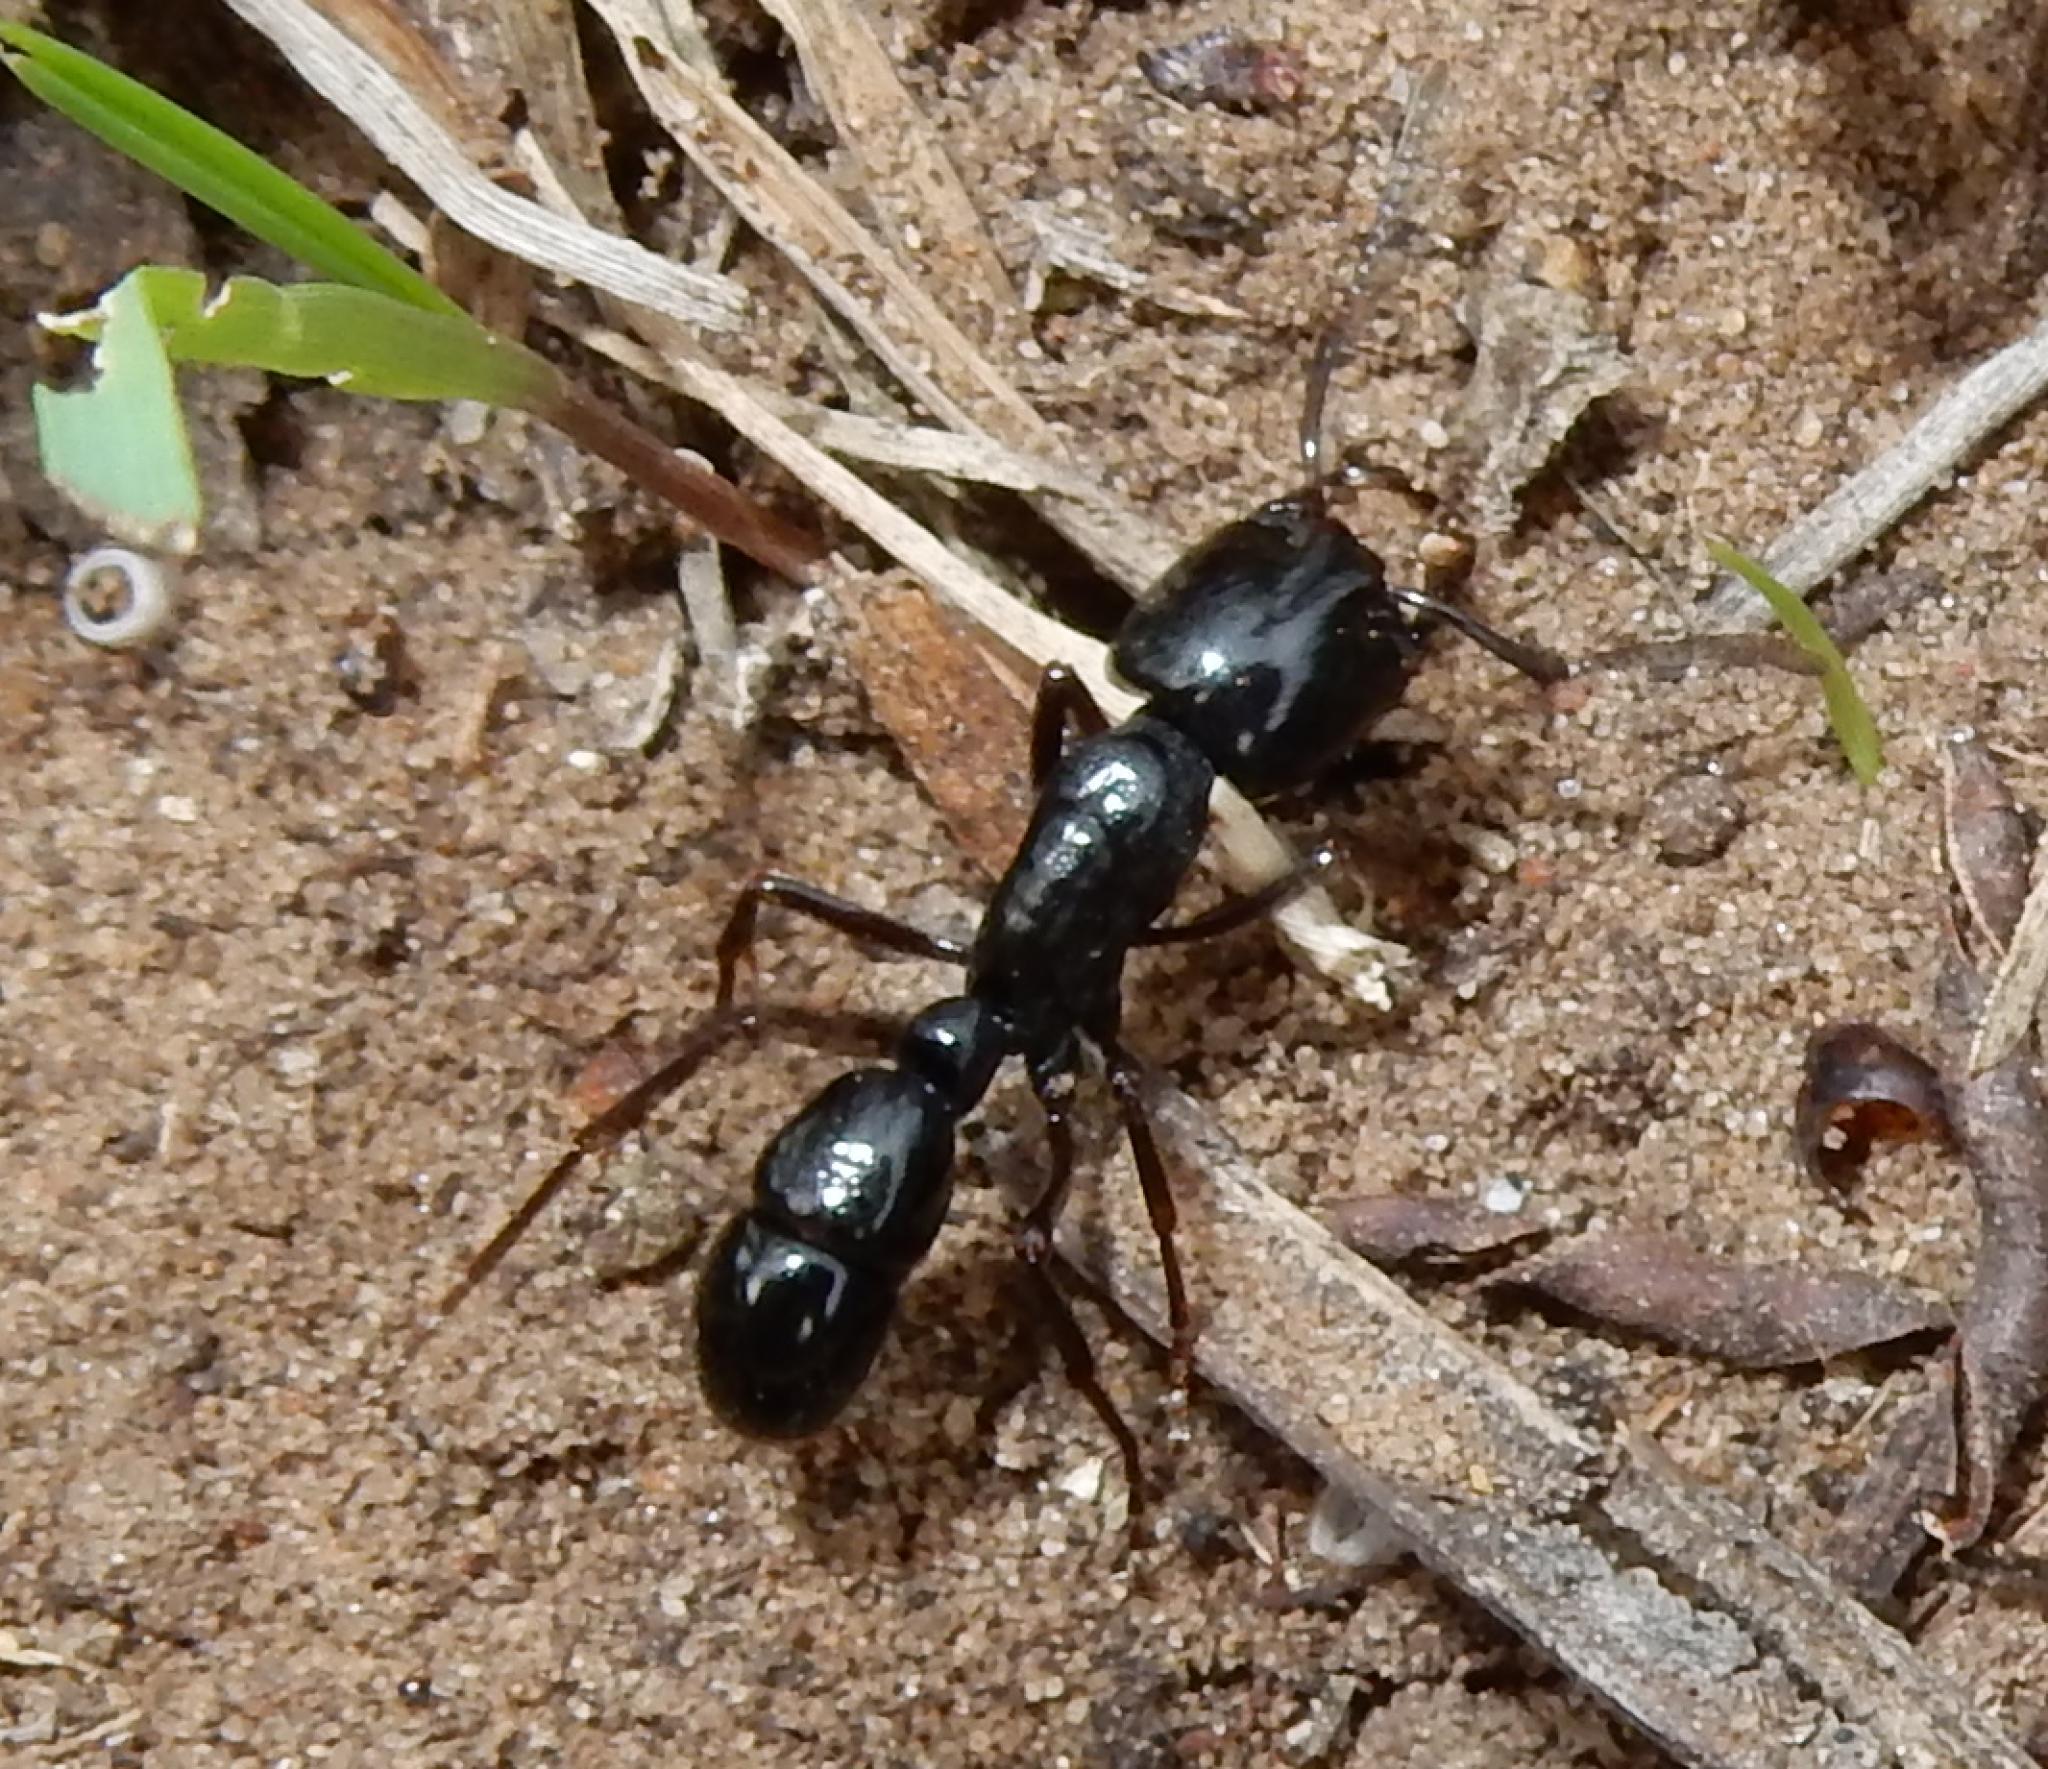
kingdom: Animalia
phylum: Arthropoda
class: Insecta
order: Hymenoptera
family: Formicidae
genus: Plectroctena
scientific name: Plectroctena mandibularis
